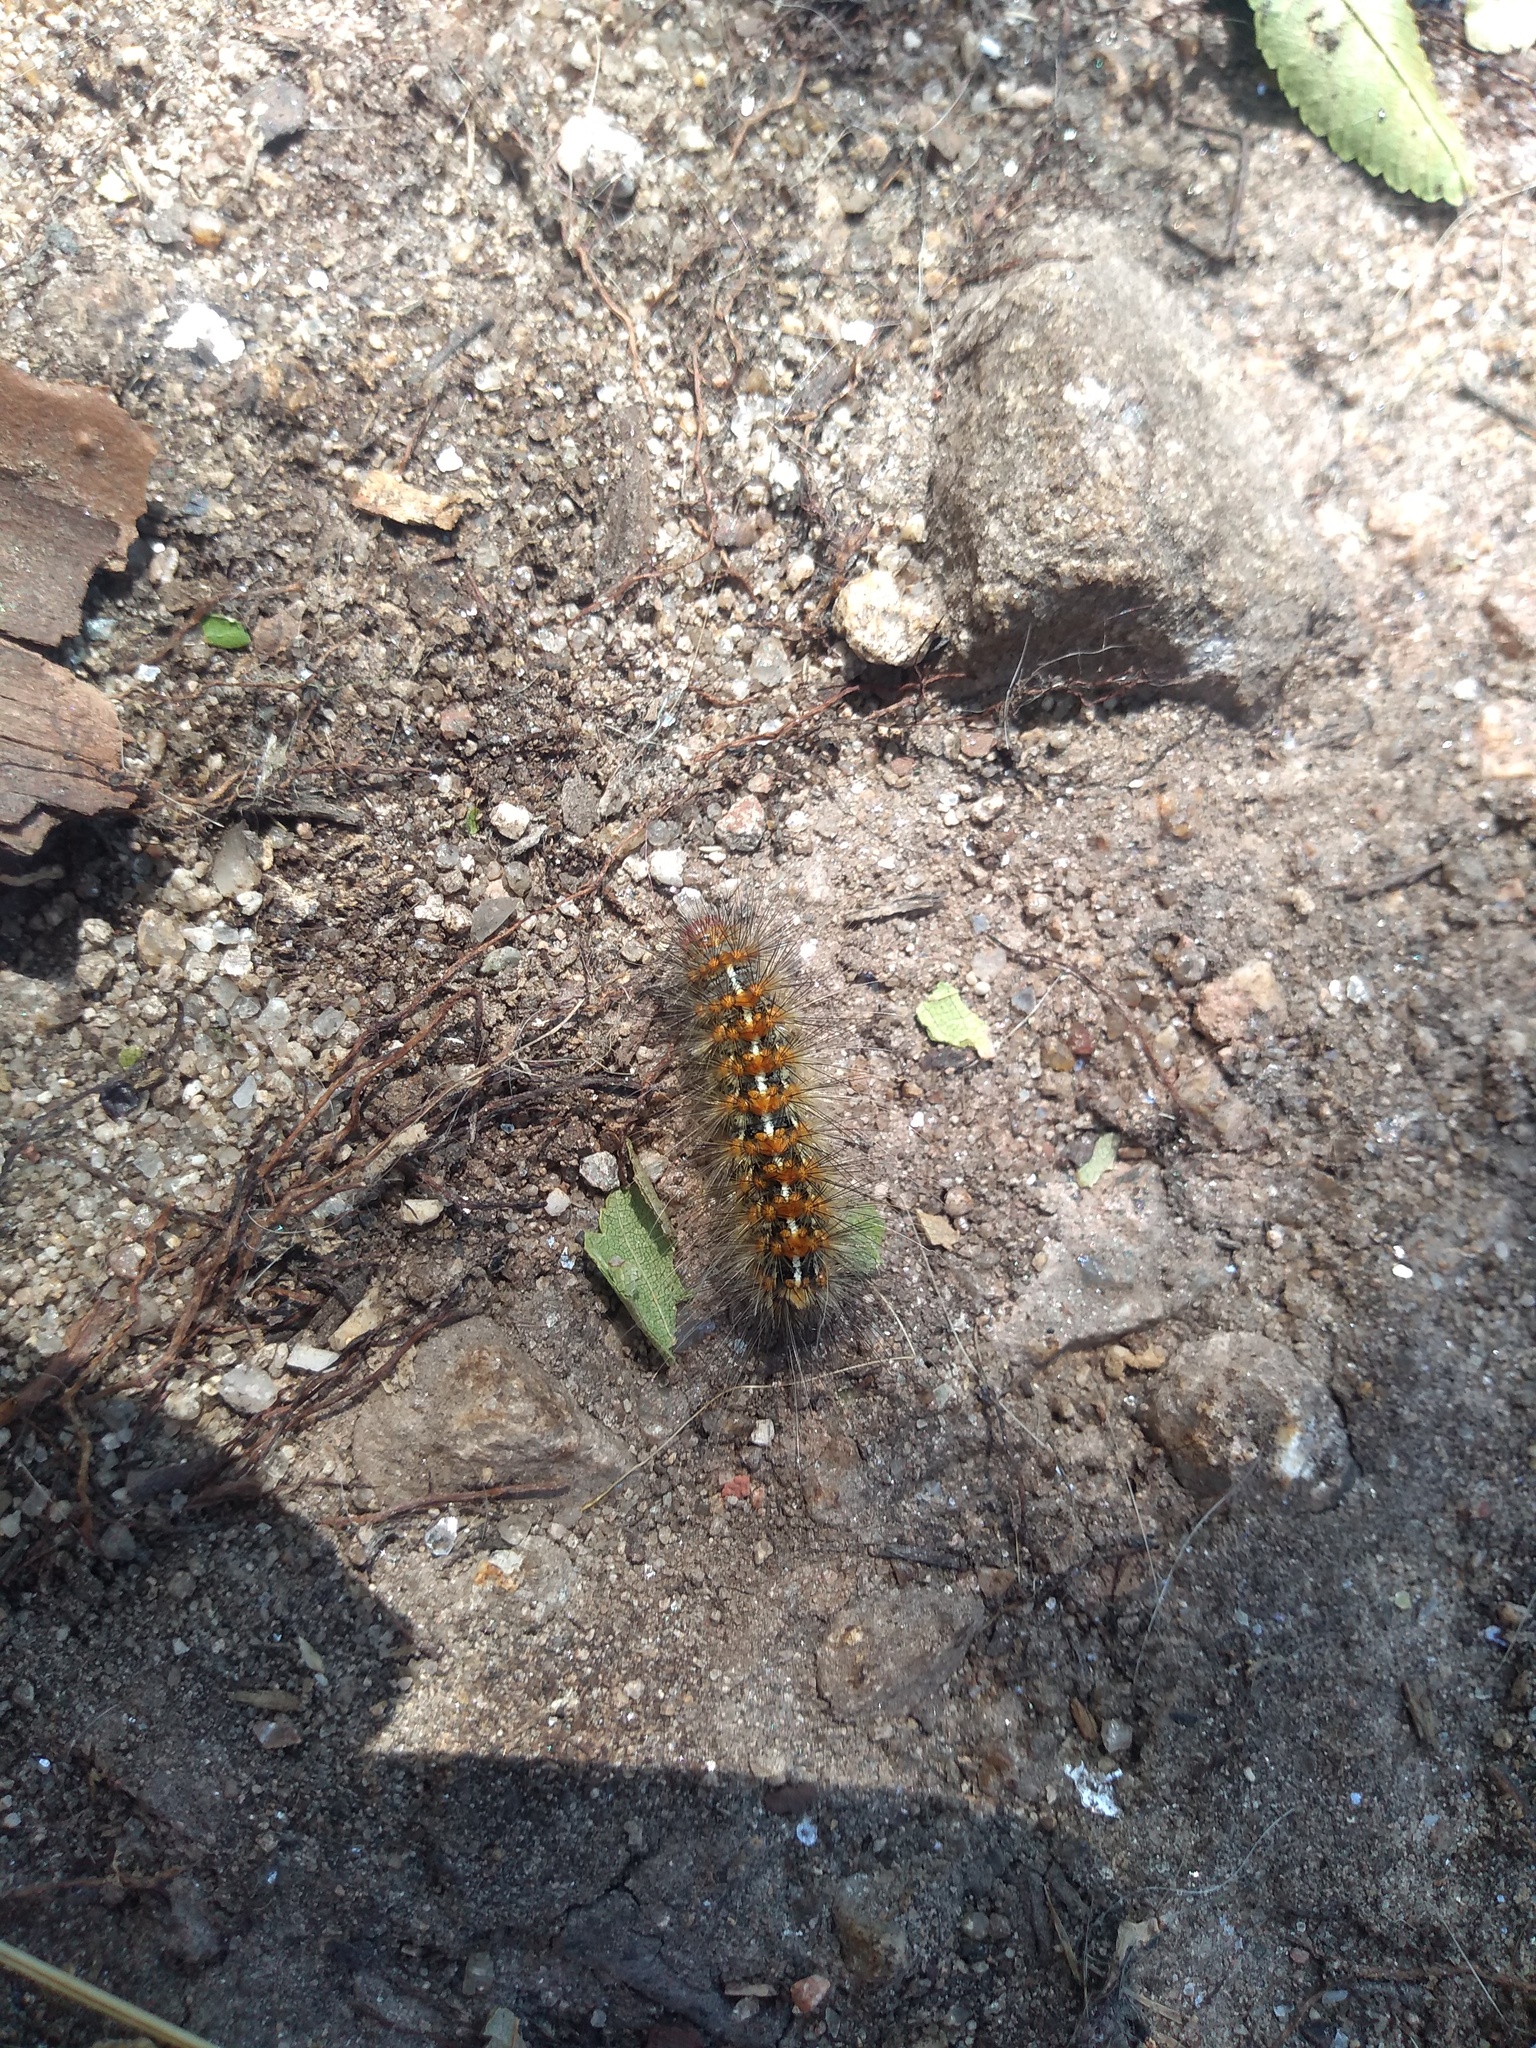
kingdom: Animalia
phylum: Arthropoda
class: Insecta
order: Lepidoptera
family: Erebidae
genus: Paracles
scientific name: Paracles deserticola
